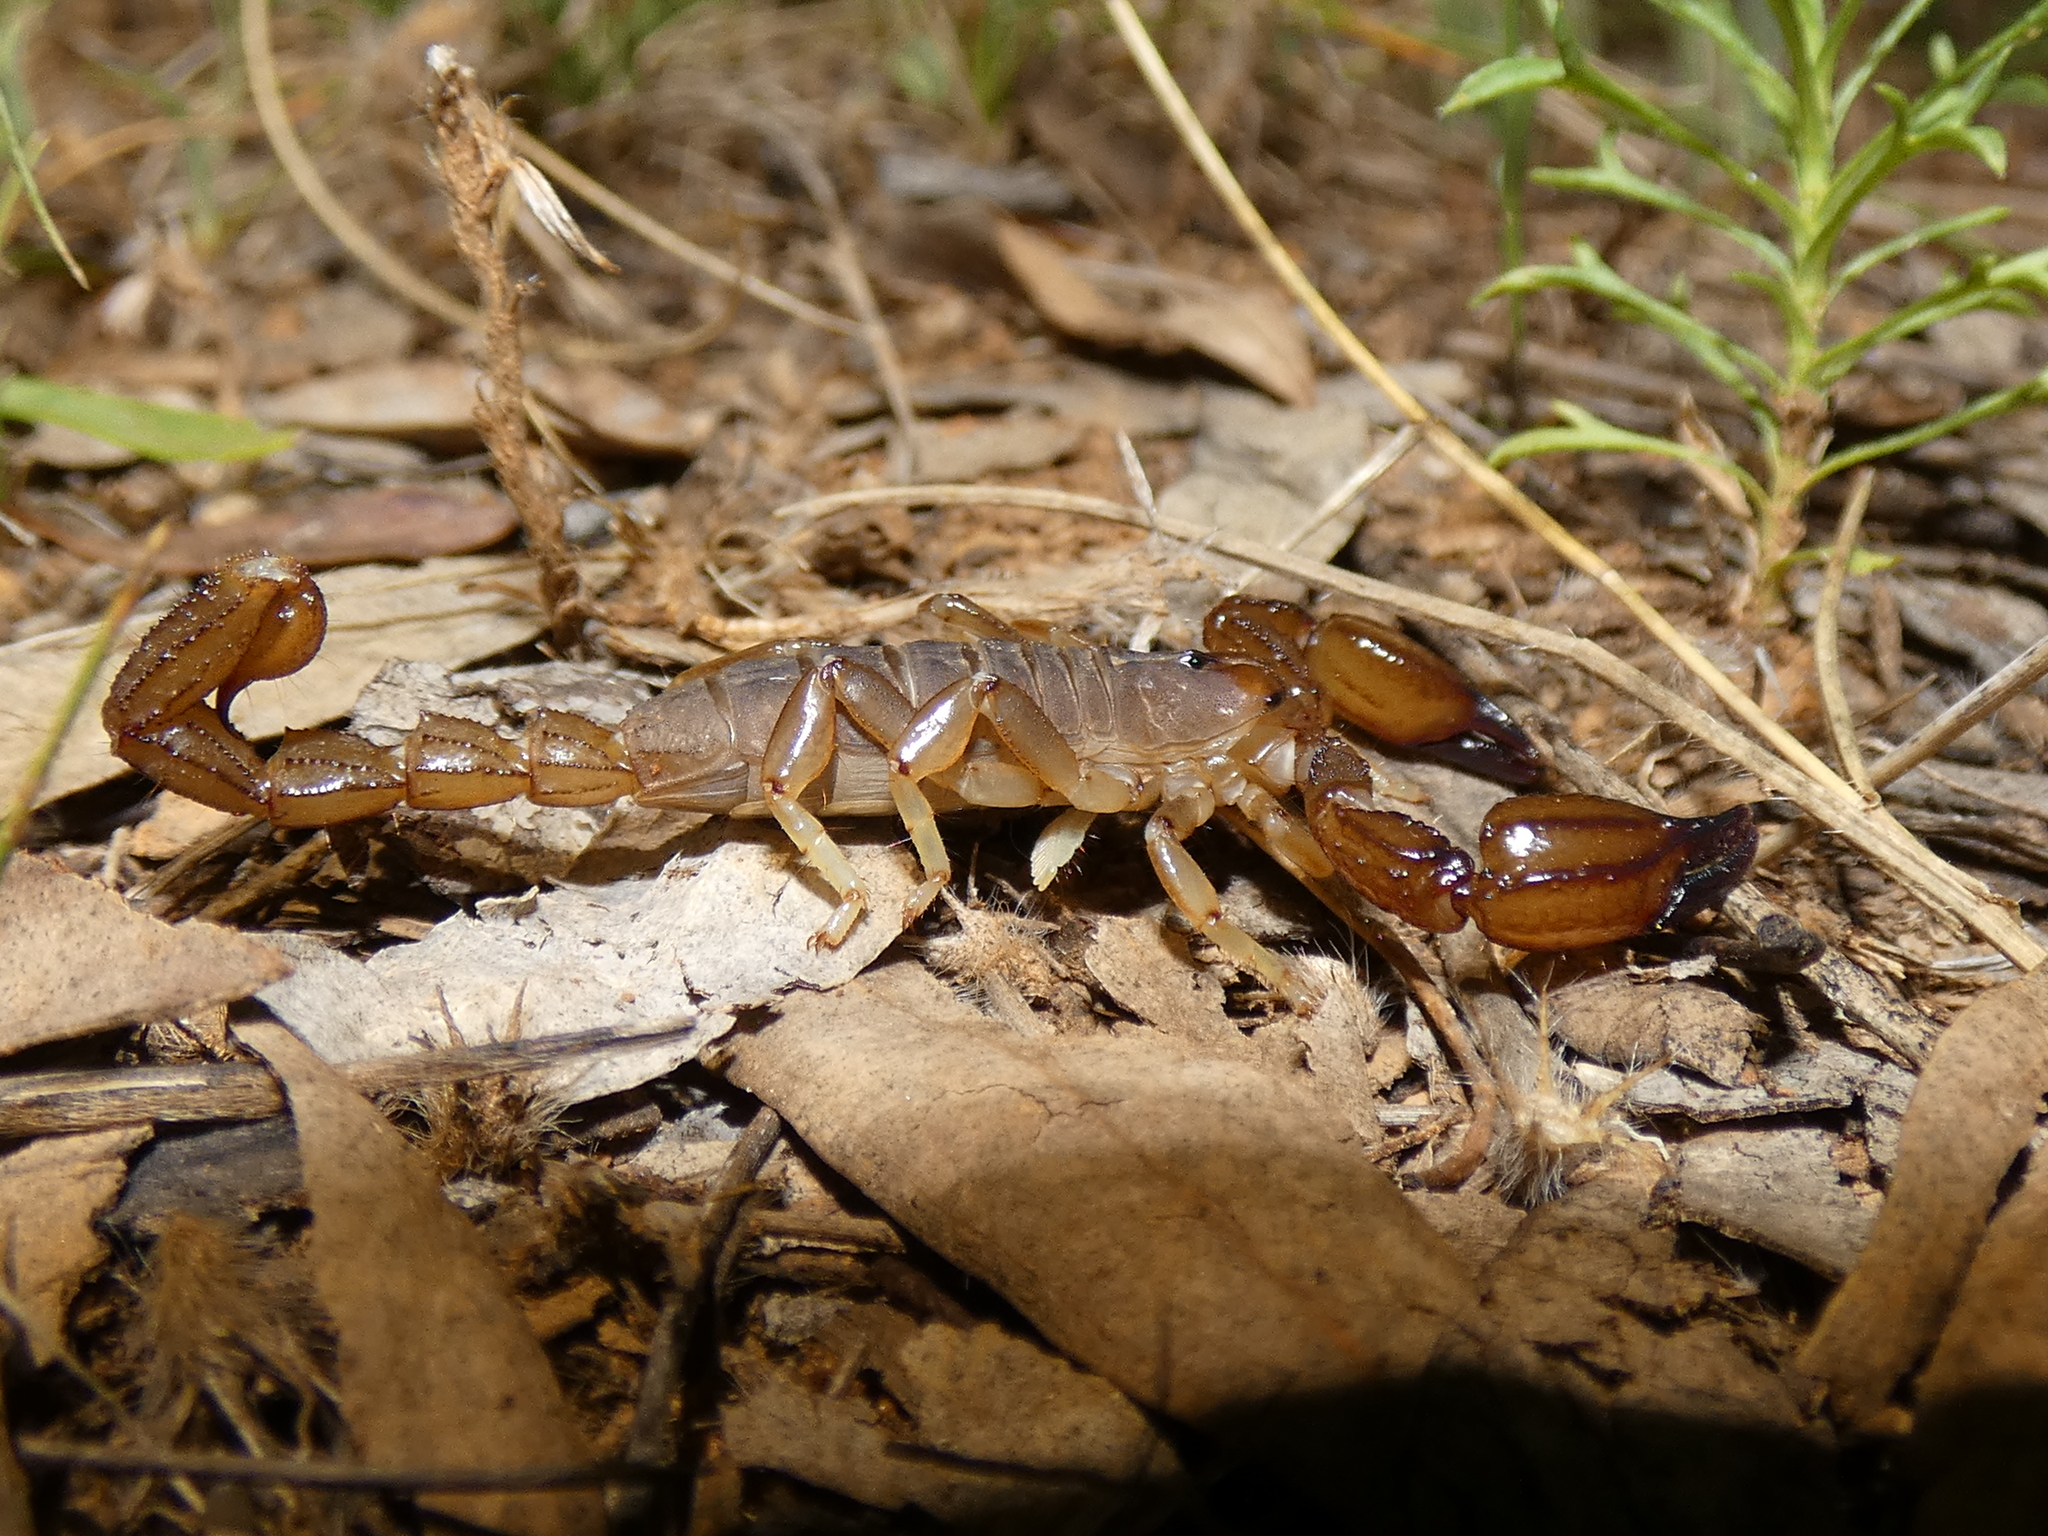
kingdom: Animalia
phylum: Arthropoda
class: Arachnida
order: Scorpiones
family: Scorpionidae
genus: Urodacus
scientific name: Urodacus manicatus
